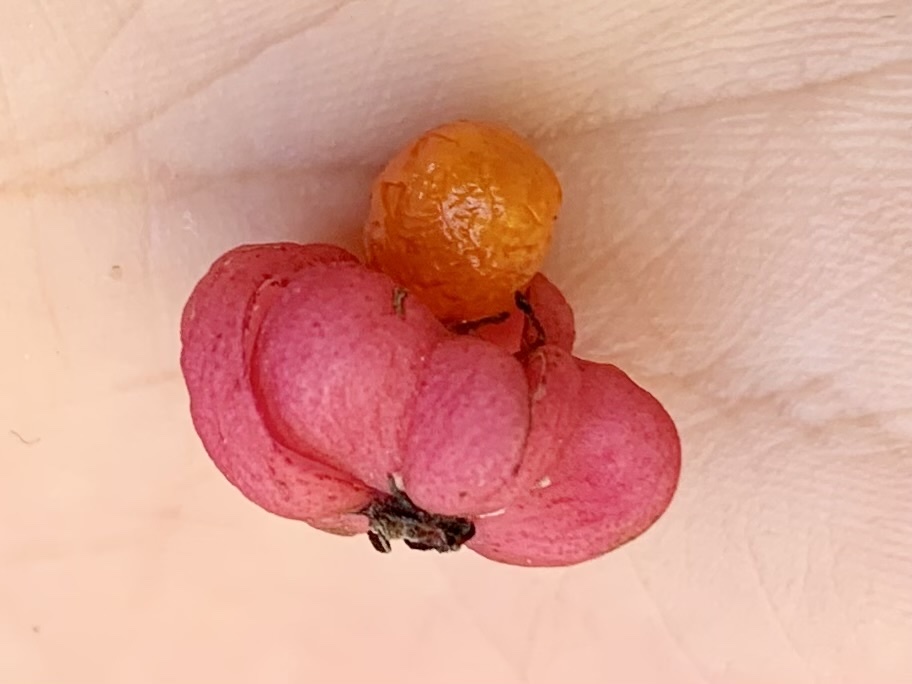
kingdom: Plantae
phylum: Tracheophyta
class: Magnoliopsida
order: Celastrales
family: Celastraceae
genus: Euonymus
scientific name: Euonymus europaeus
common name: Spindle
